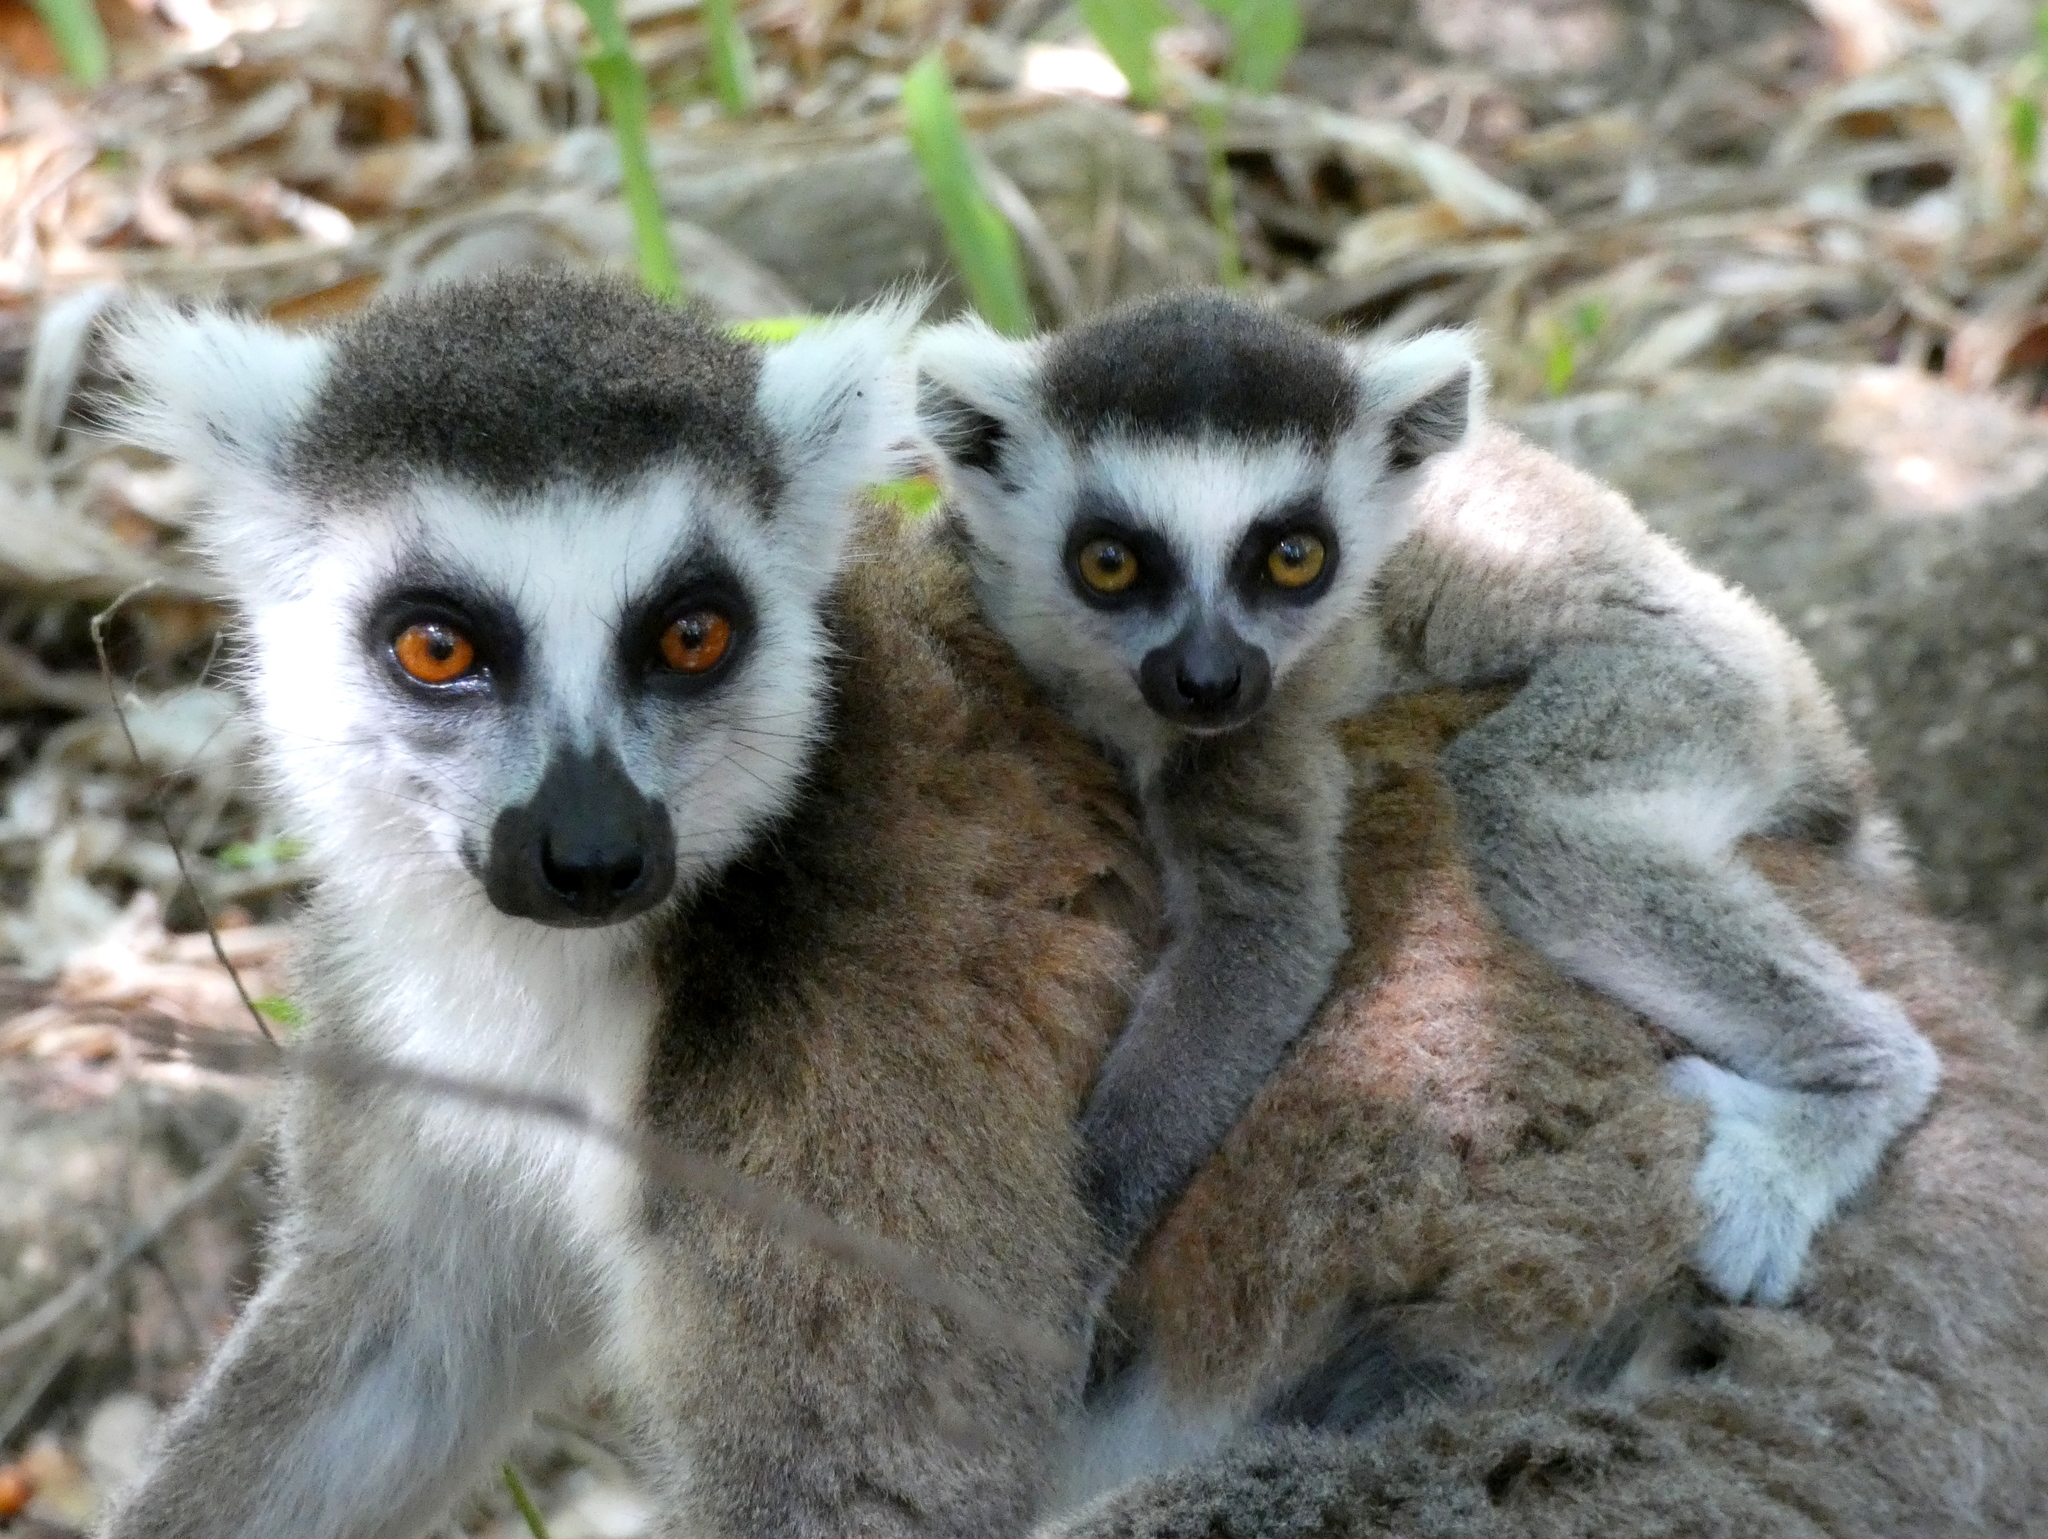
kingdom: Animalia
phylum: Chordata
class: Mammalia
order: Primates
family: Lemuridae
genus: Lemur
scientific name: Lemur catta
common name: Ring-tailed lemur
